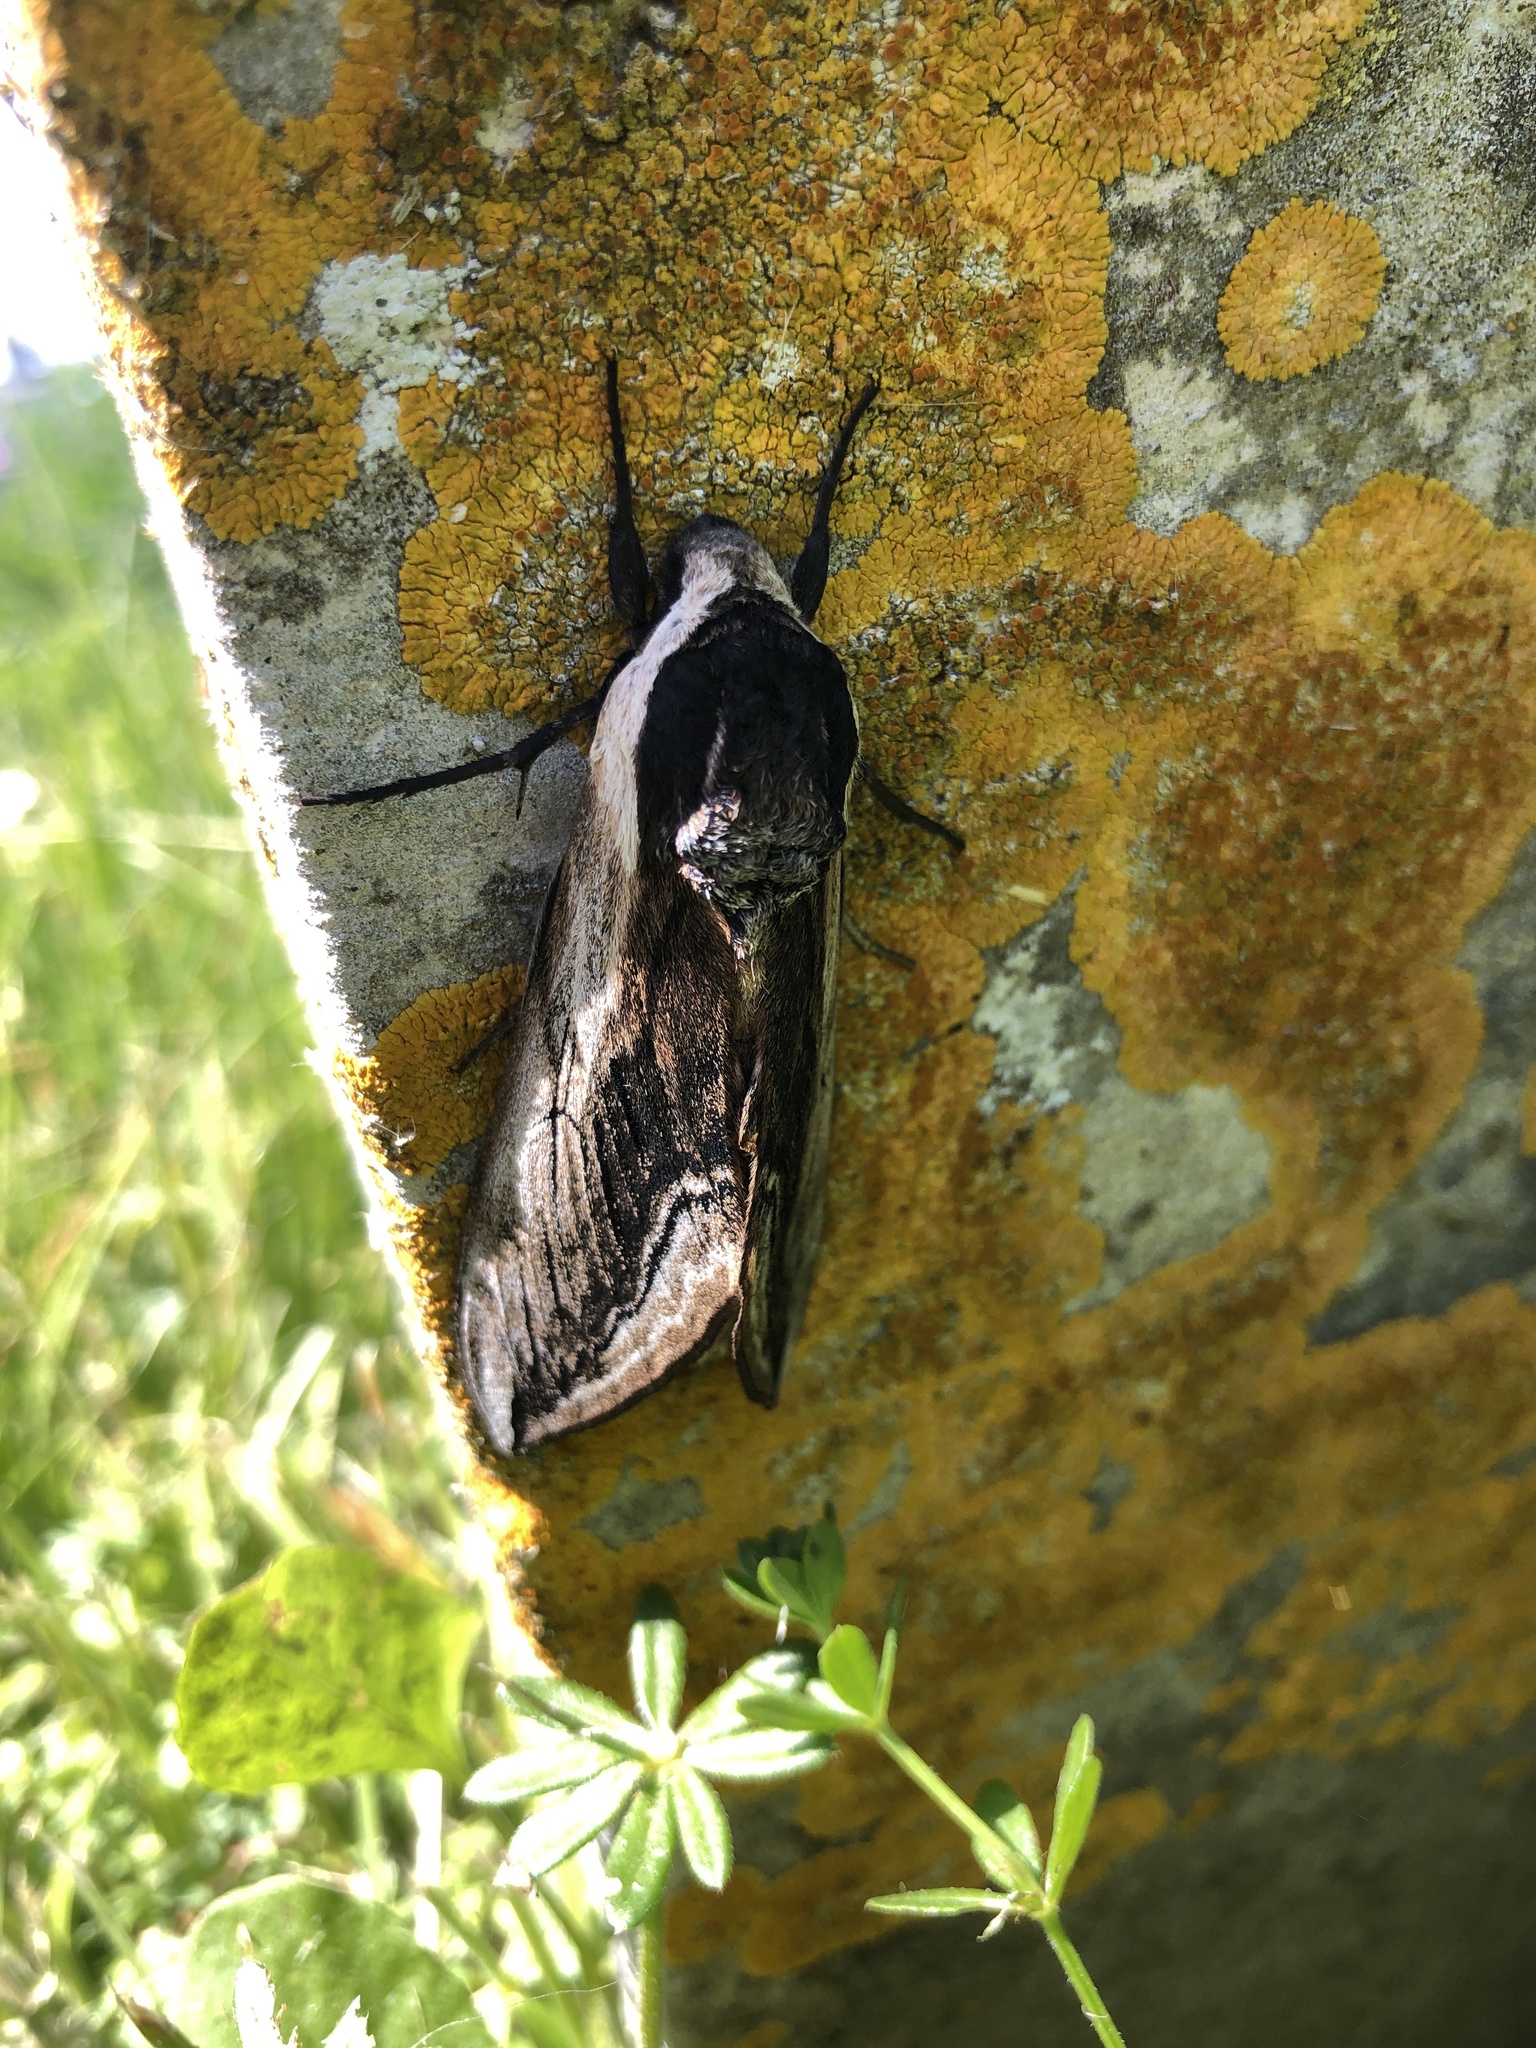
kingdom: Animalia
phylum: Arthropoda
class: Insecta
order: Lepidoptera
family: Sphingidae
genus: Sphinx
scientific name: Sphinx ligustri
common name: Privet hawk-moth
